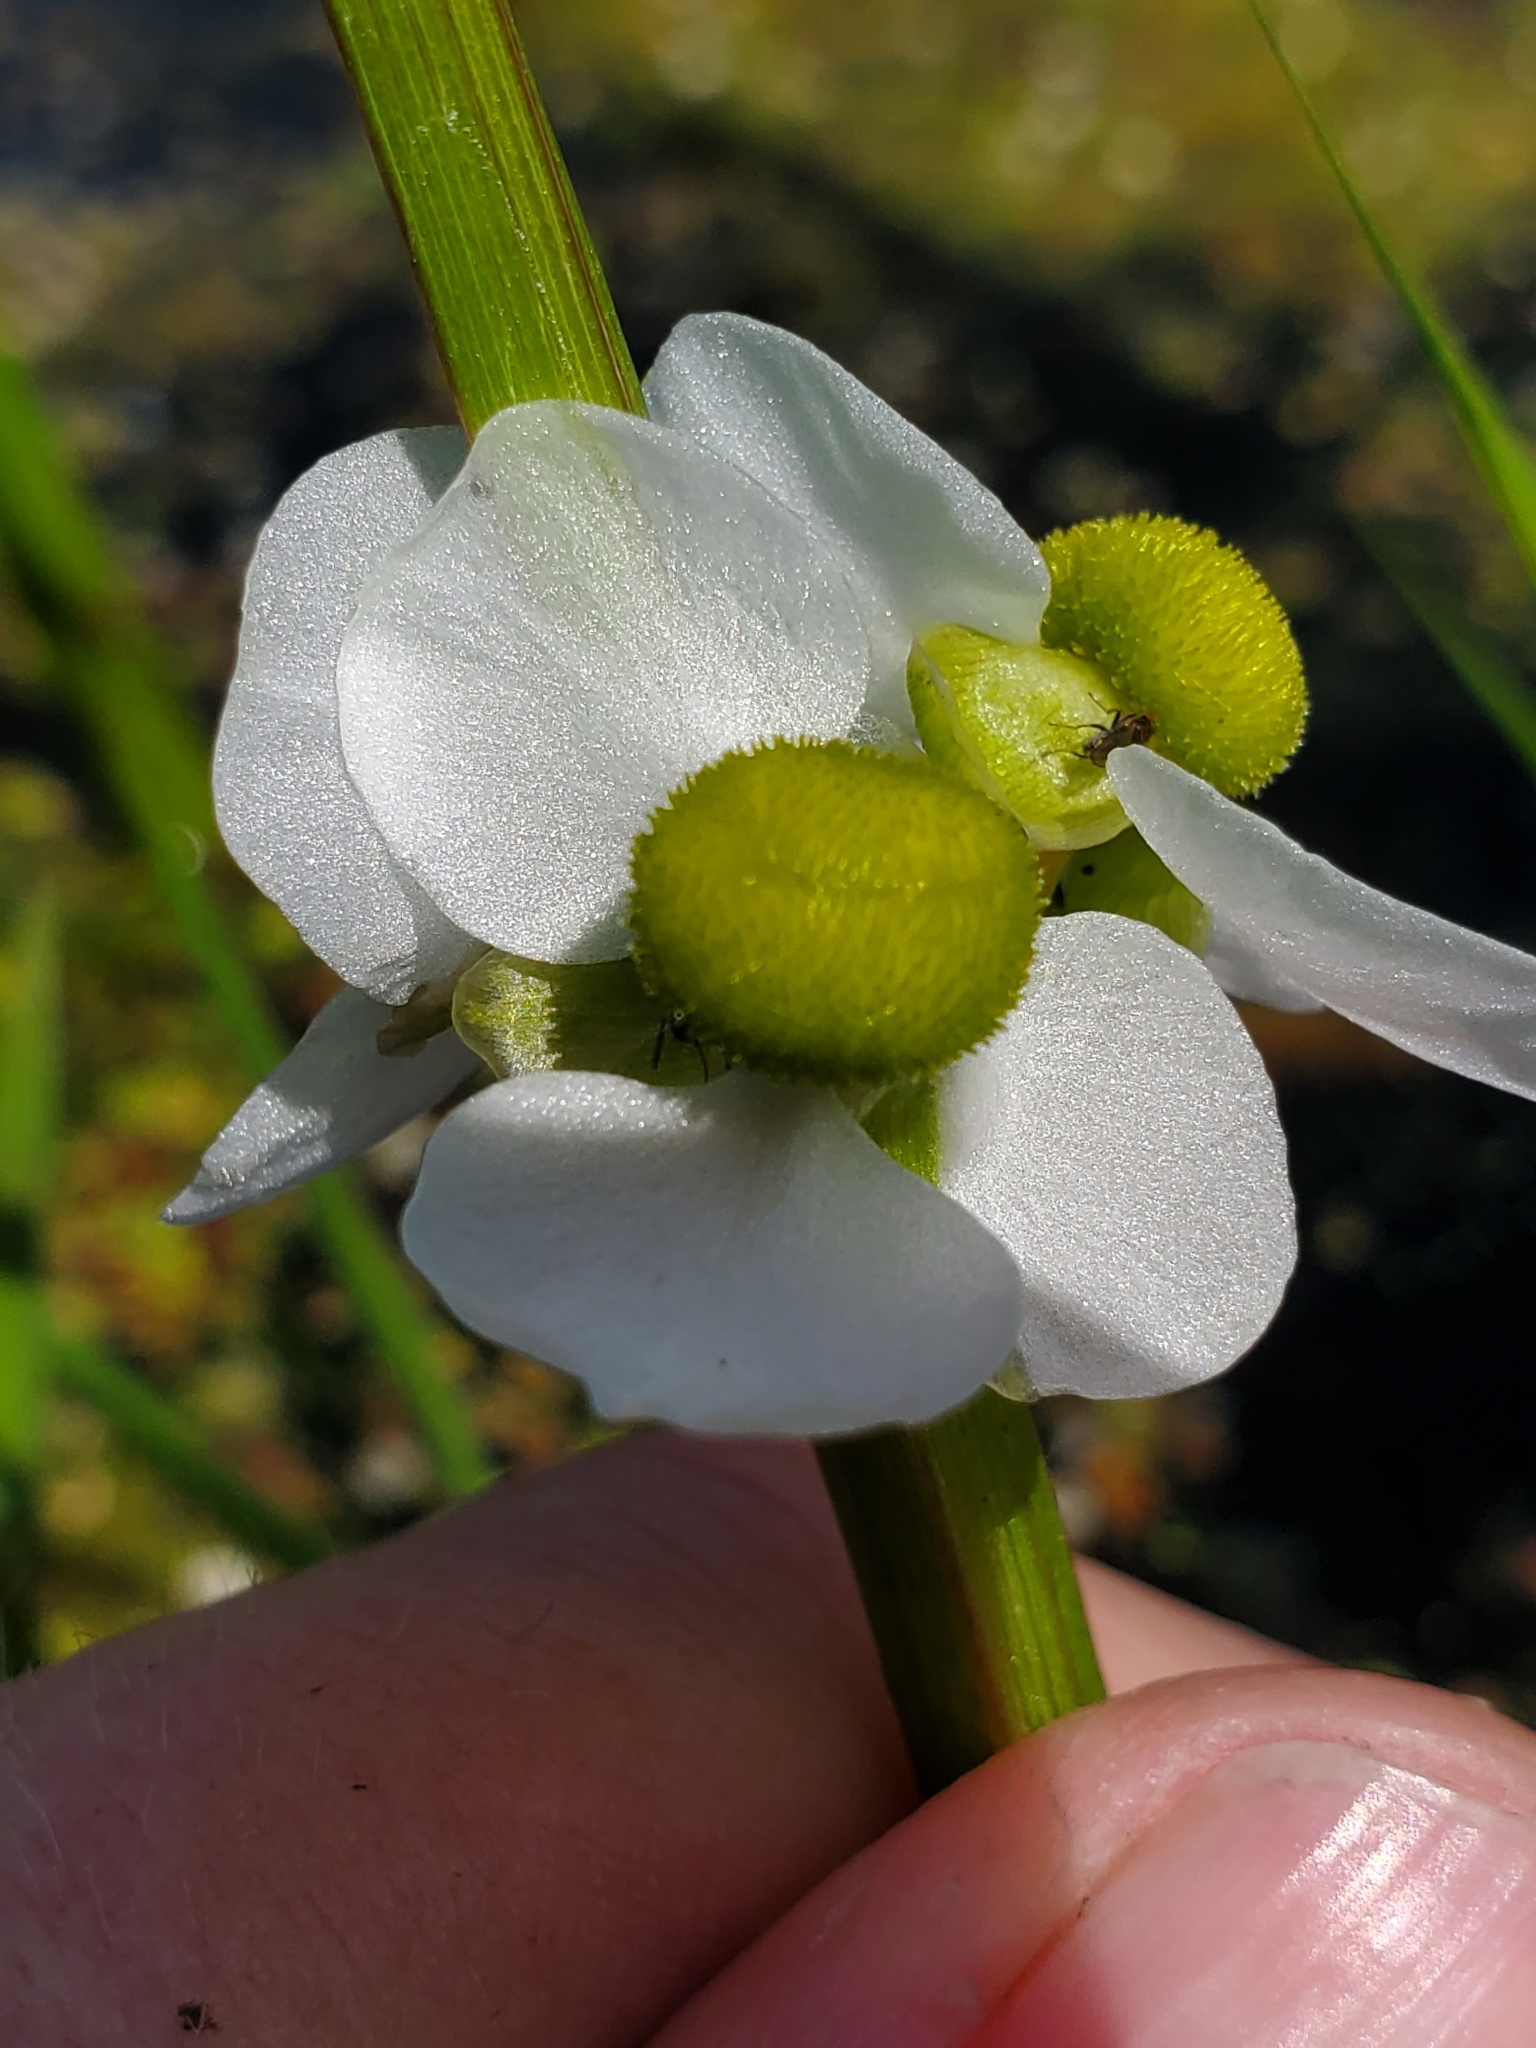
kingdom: Plantae
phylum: Tracheophyta
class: Liliopsida
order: Alismatales
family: Alismataceae
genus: Sagittaria
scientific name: Sagittaria latifolia
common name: Duck-potato
